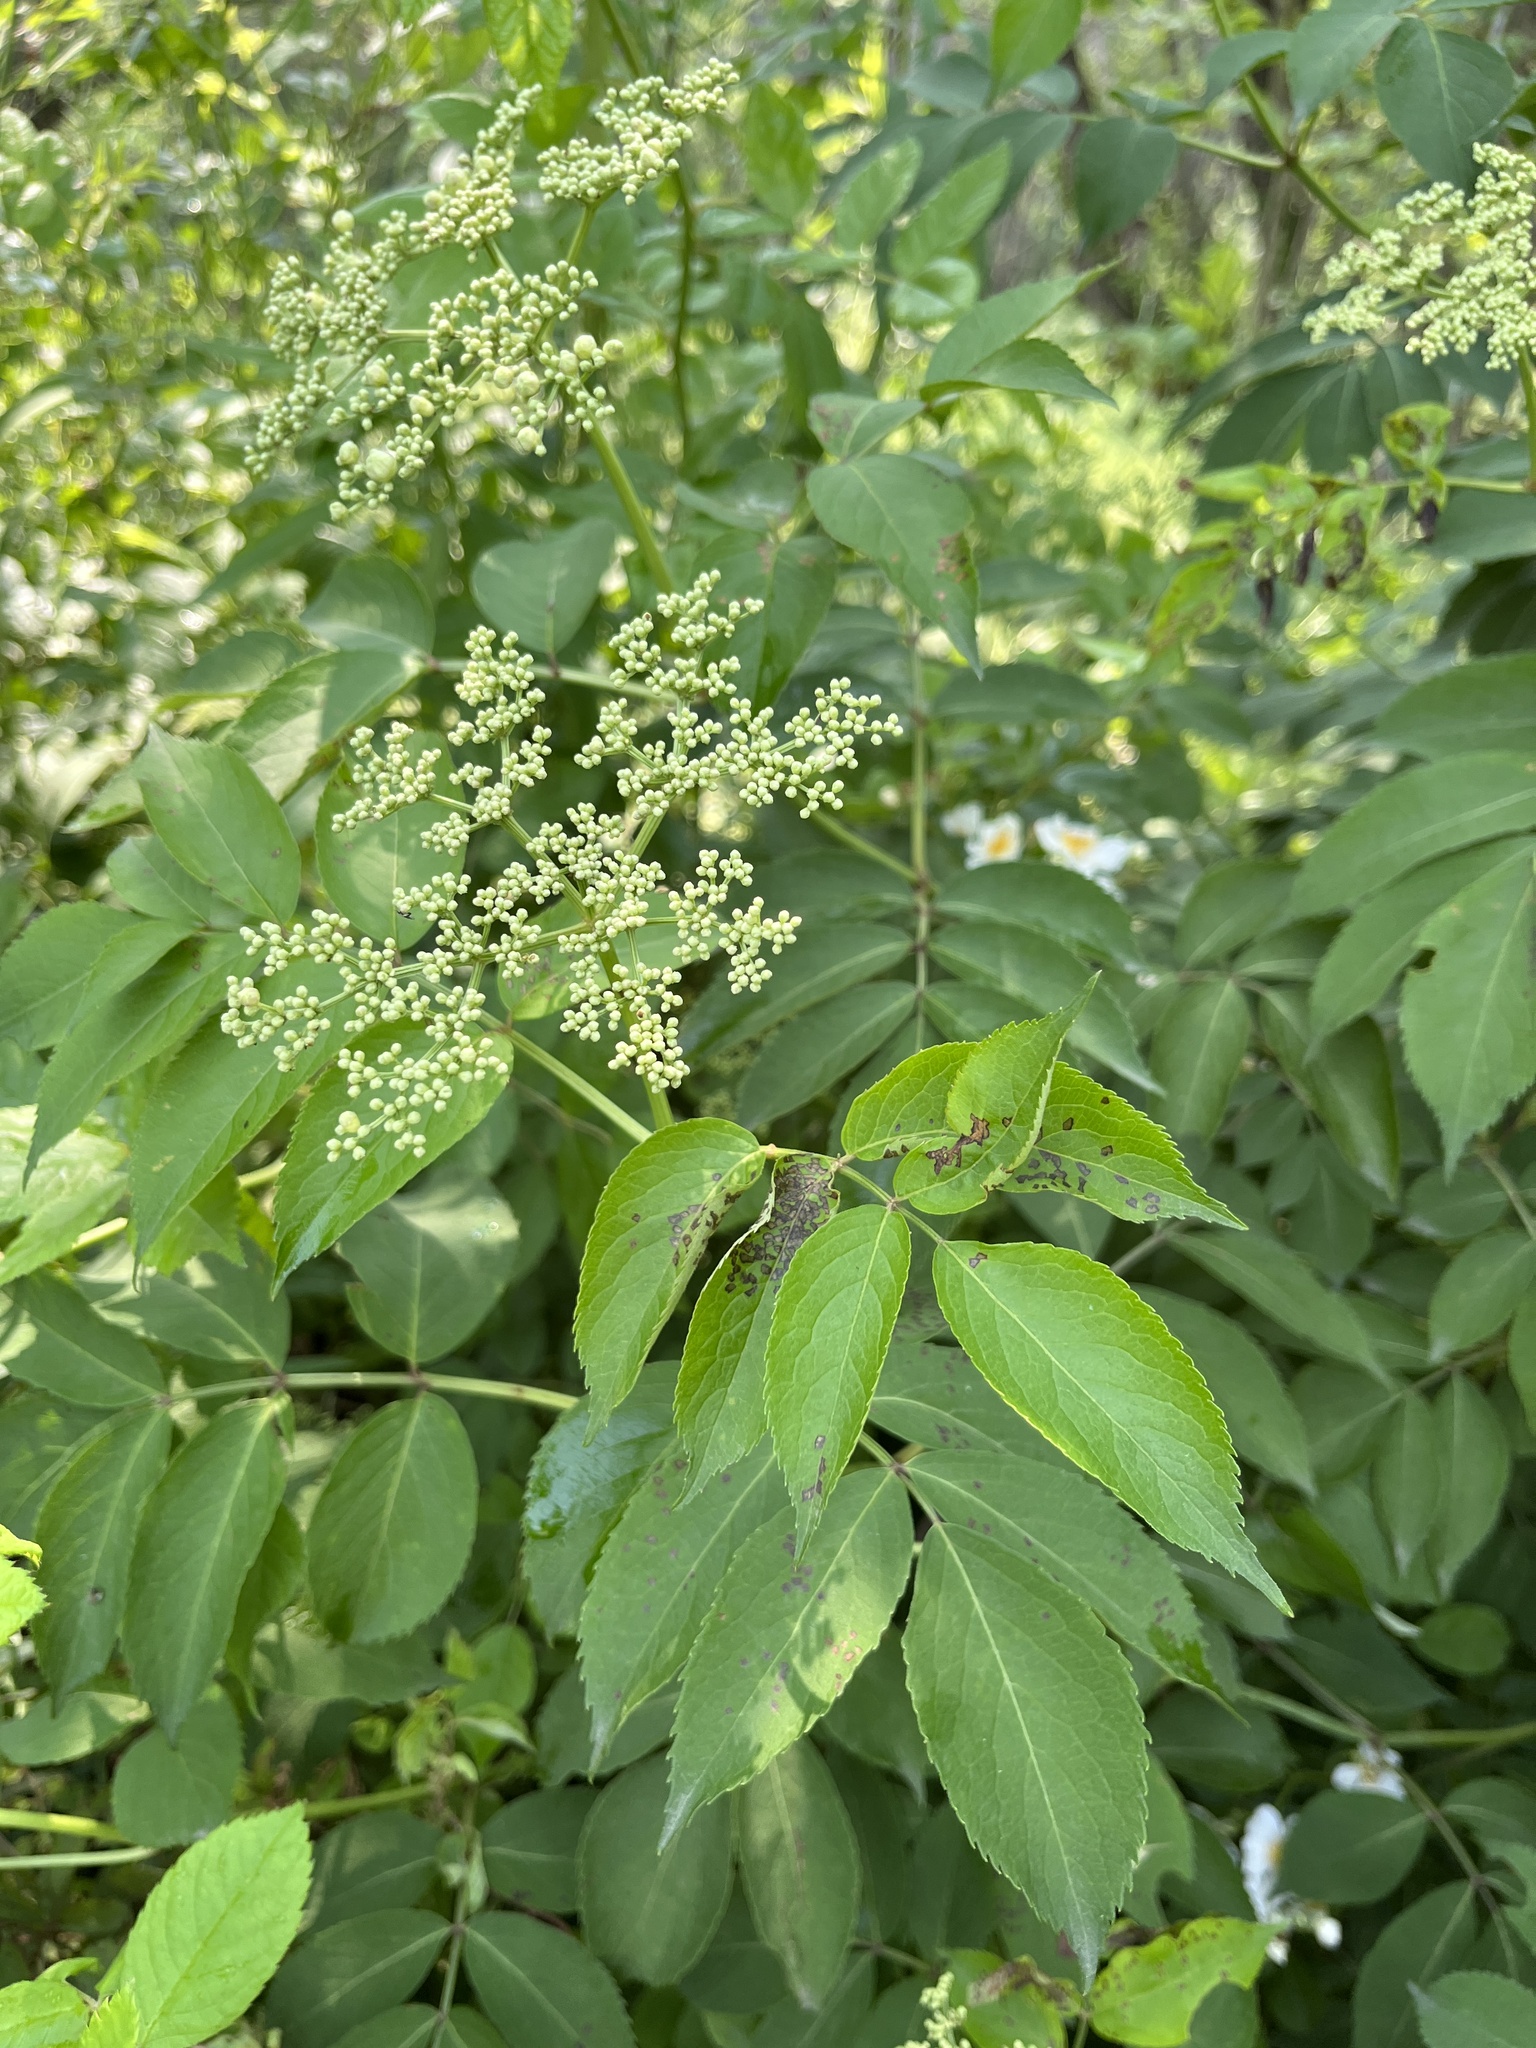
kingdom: Plantae
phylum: Tracheophyta
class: Magnoliopsida
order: Dipsacales
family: Viburnaceae
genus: Sambucus
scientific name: Sambucus canadensis
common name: American elder
